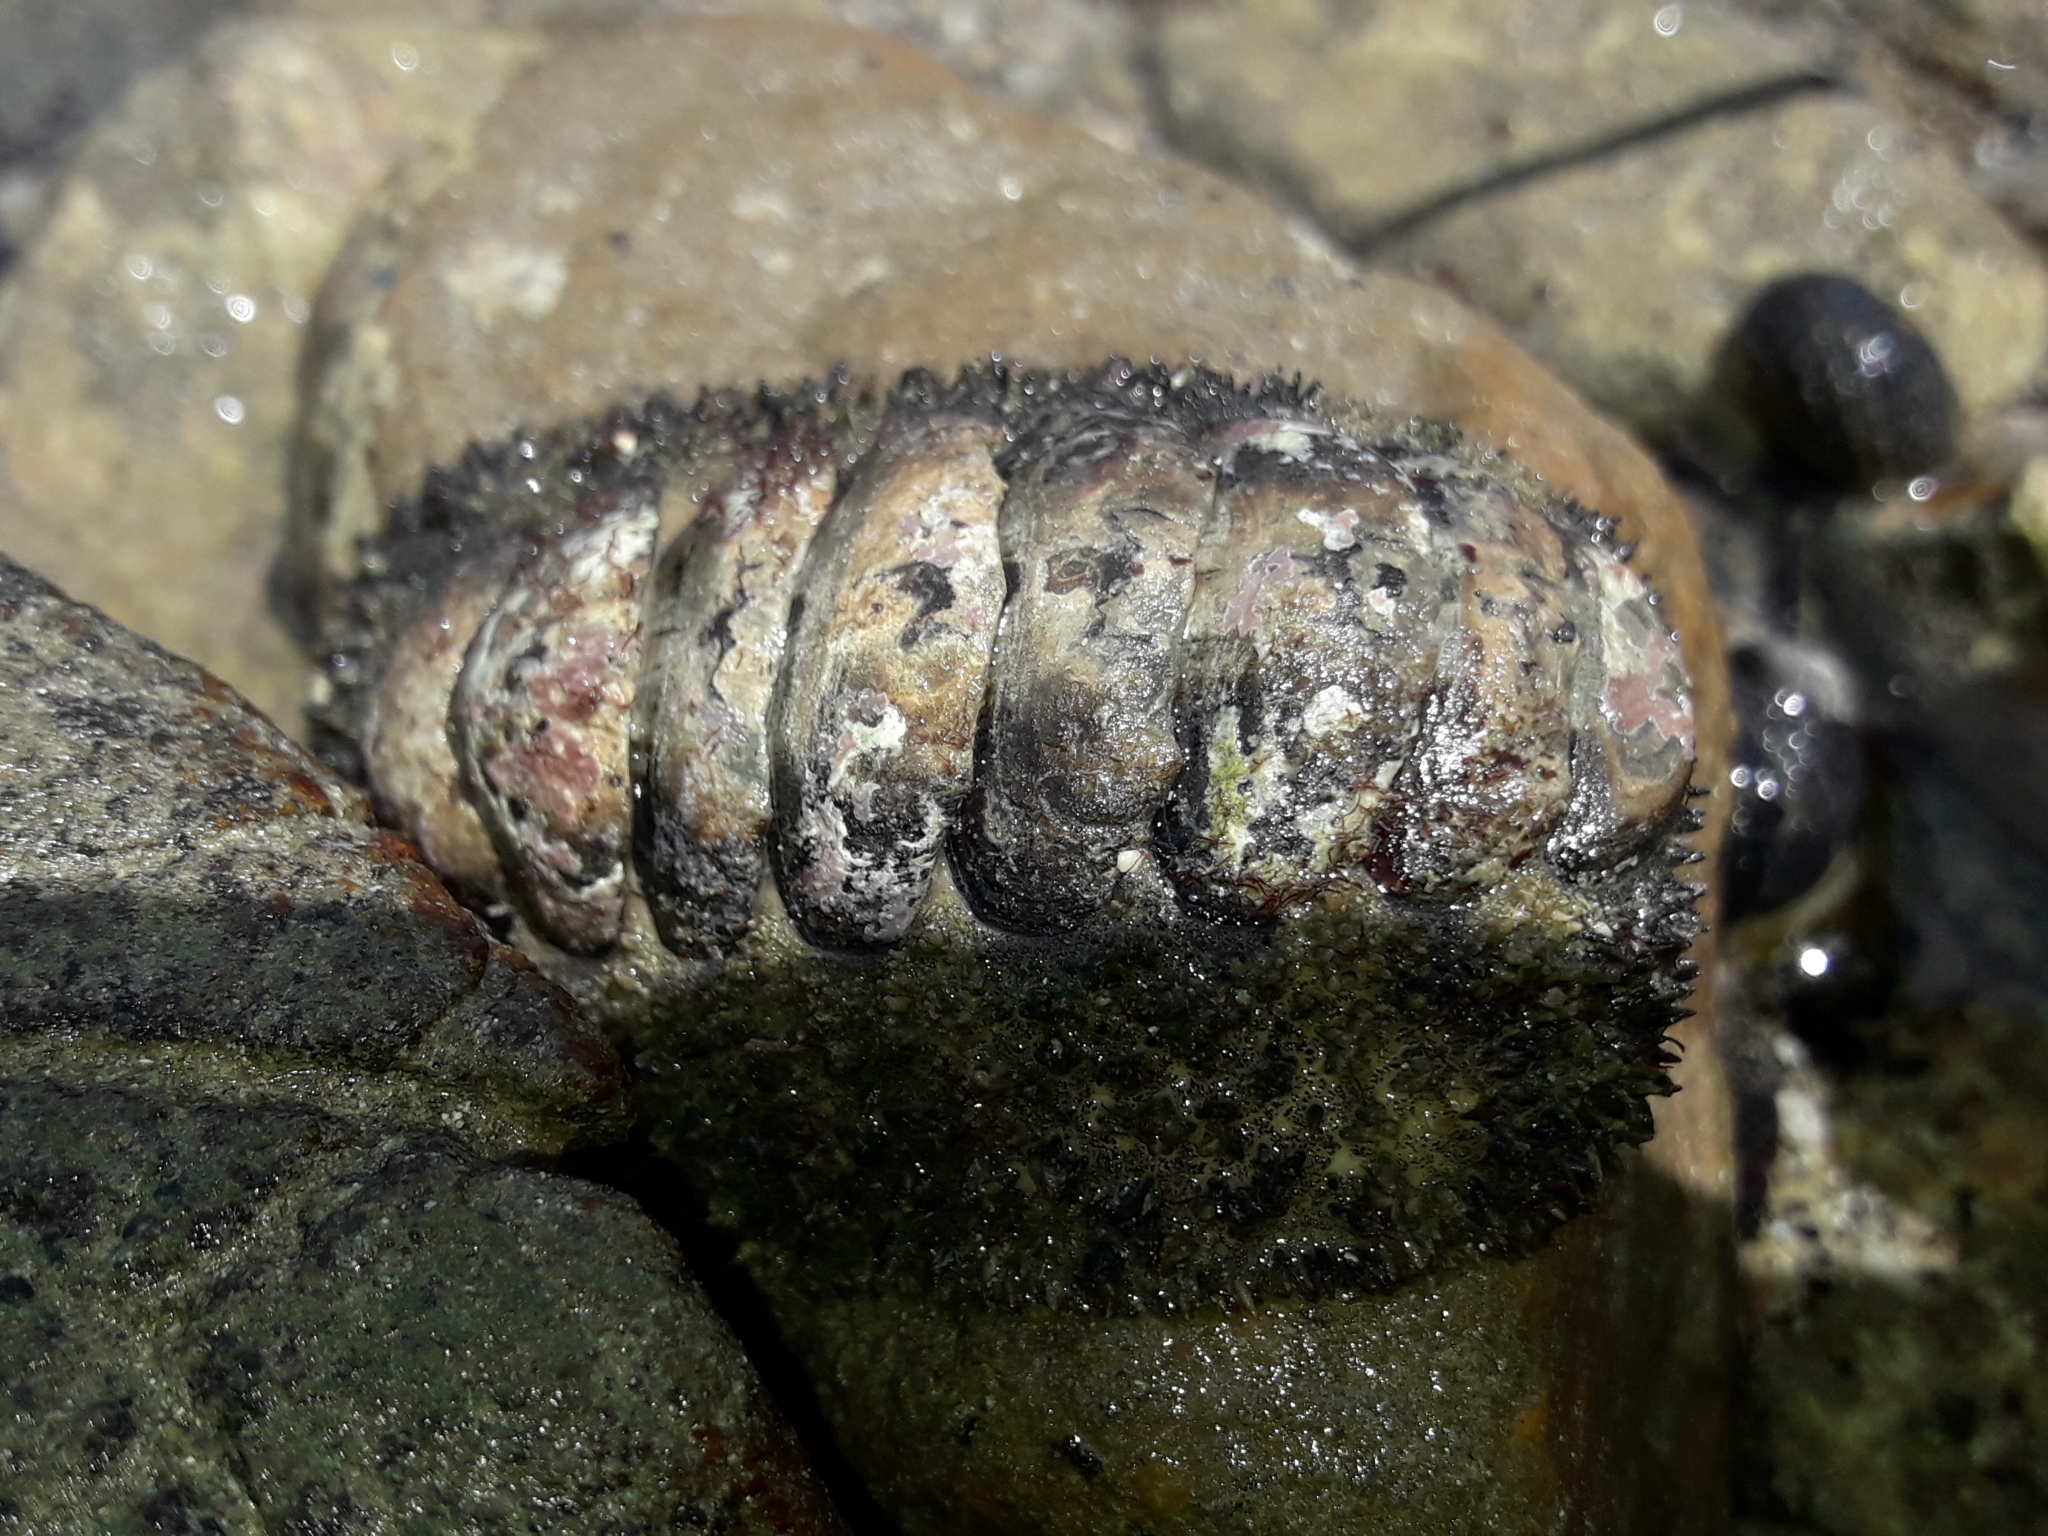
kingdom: Animalia
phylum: Mollusca
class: Polyplacophora
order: Chitonida
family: Chitonidae
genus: Acanthopleura
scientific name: Acanthopleura gemmata
